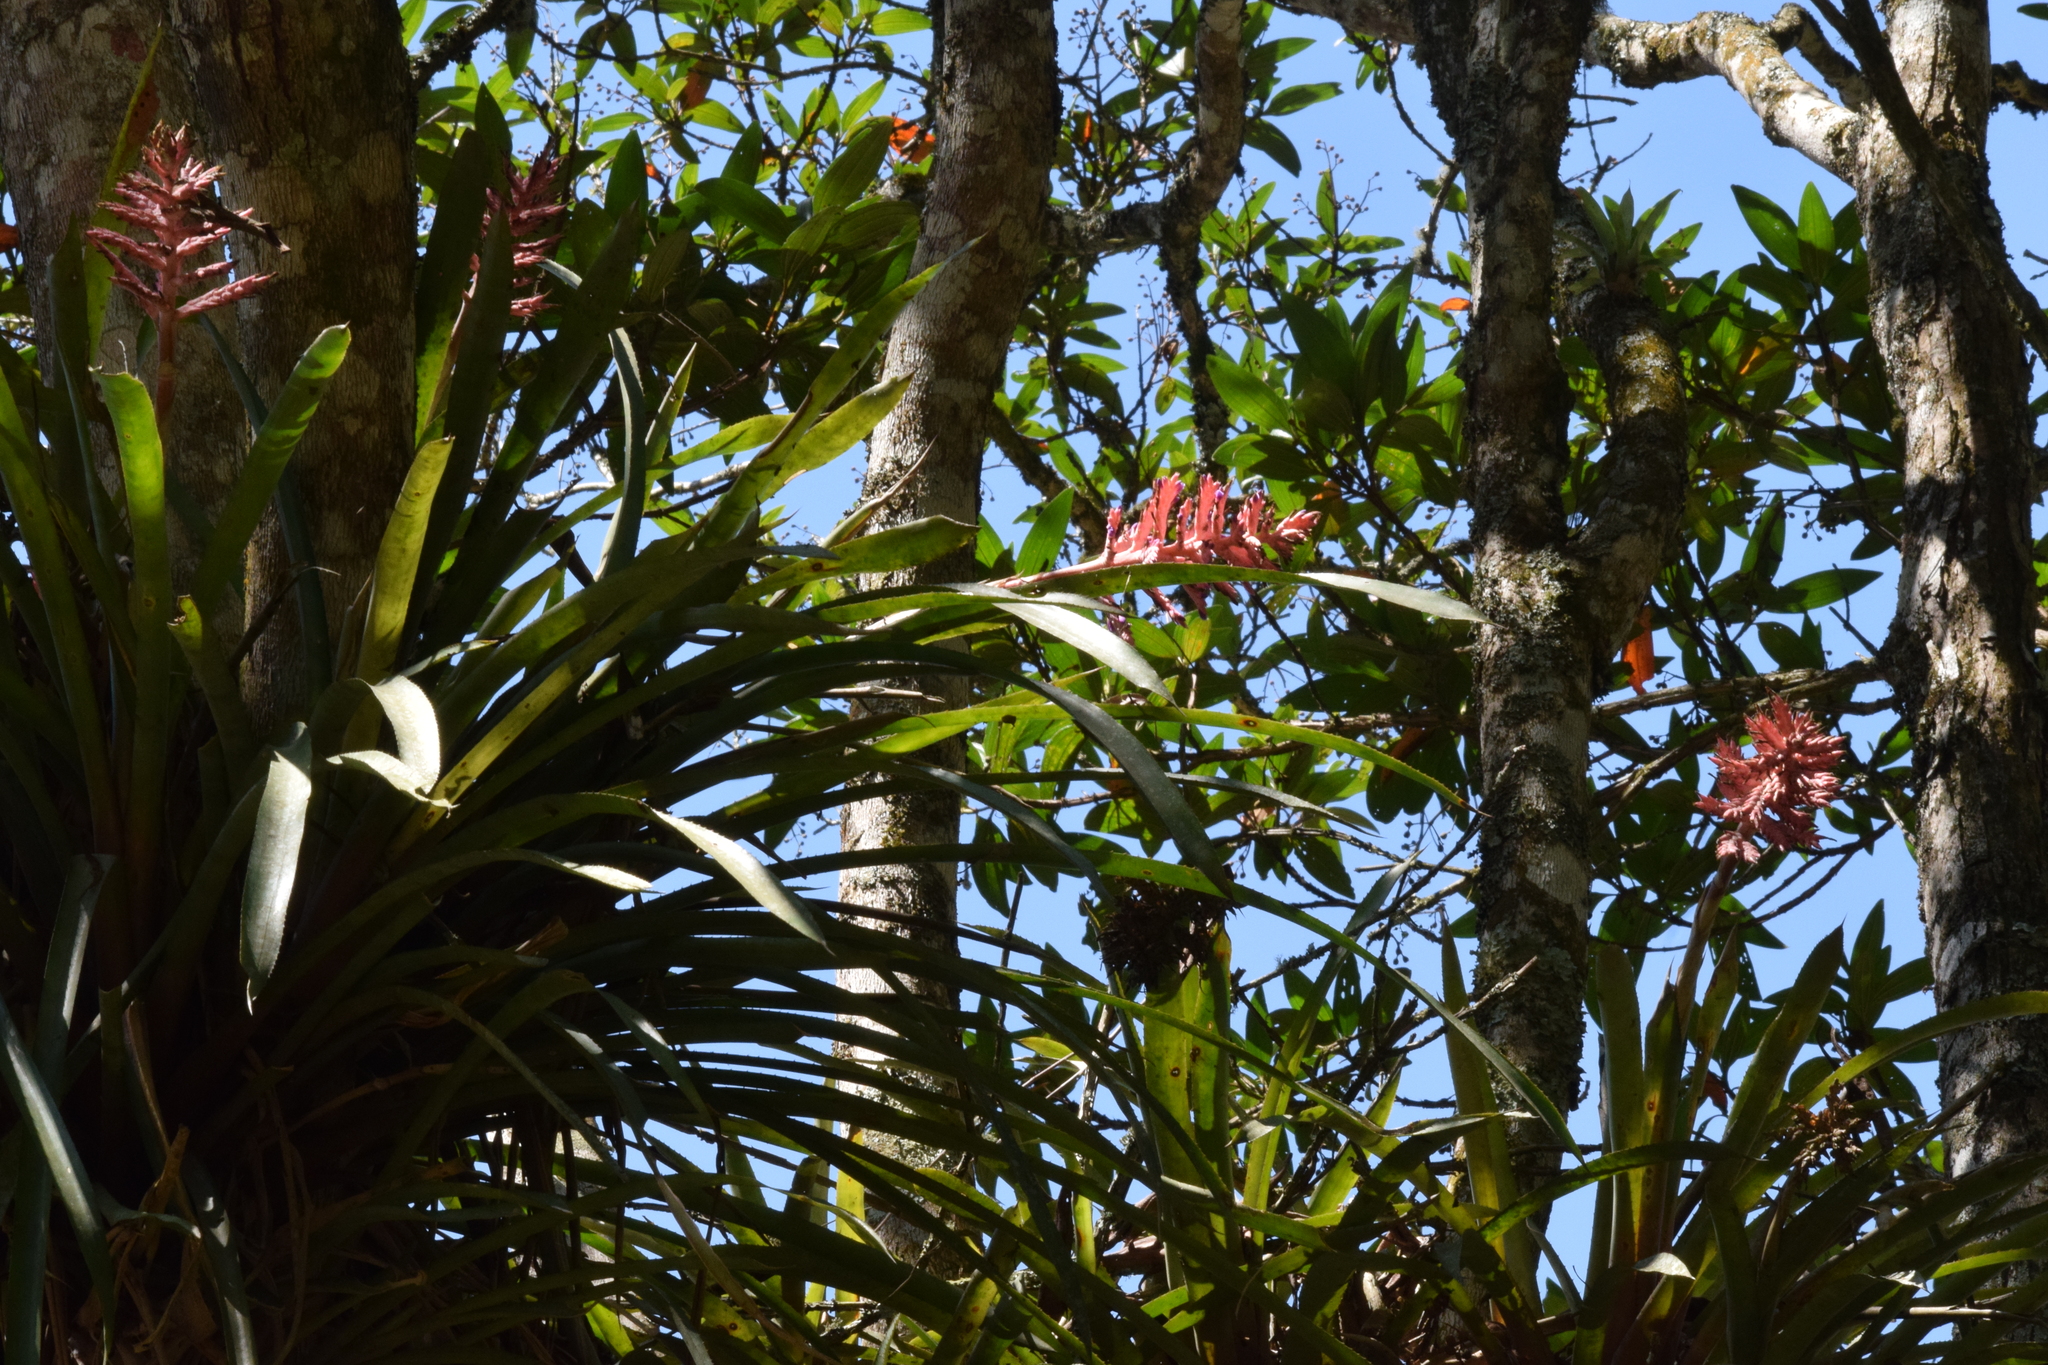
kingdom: Plantae
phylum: Tracheophyta
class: Liliopsida
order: Poales
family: Bromeliaceae
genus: Aechmea
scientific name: Aechmea distichantha
